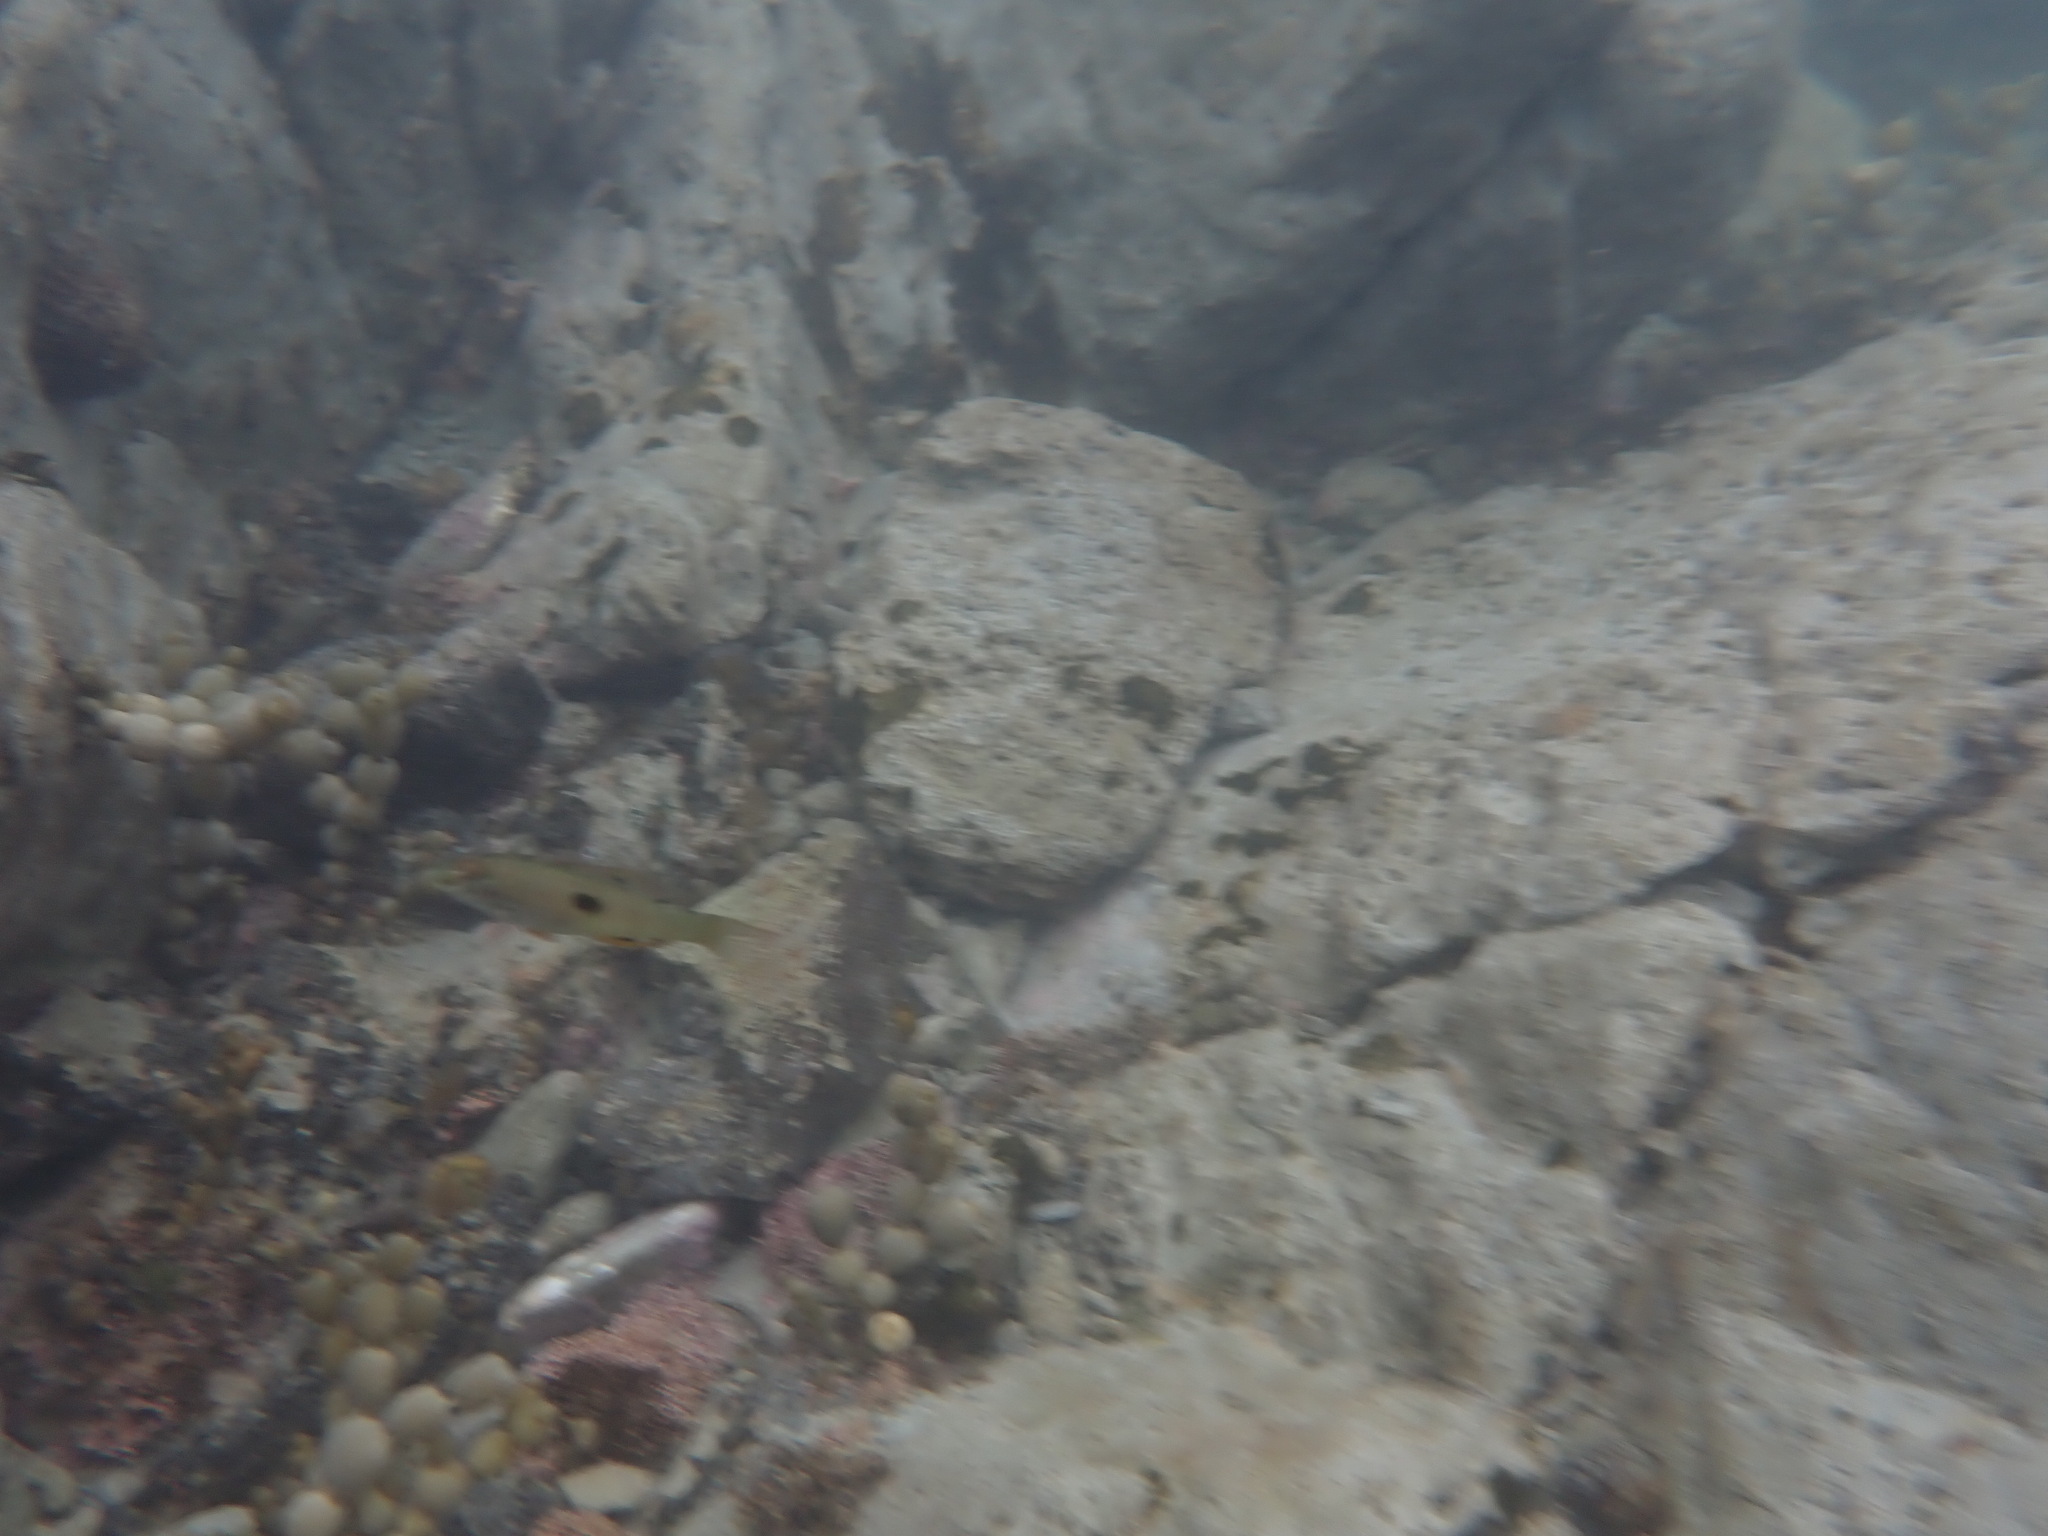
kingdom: Animalia
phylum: Chordata
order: Perciformes
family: Labridae
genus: Notolabrus
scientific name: Notolabrus celidotus
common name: Spotty
